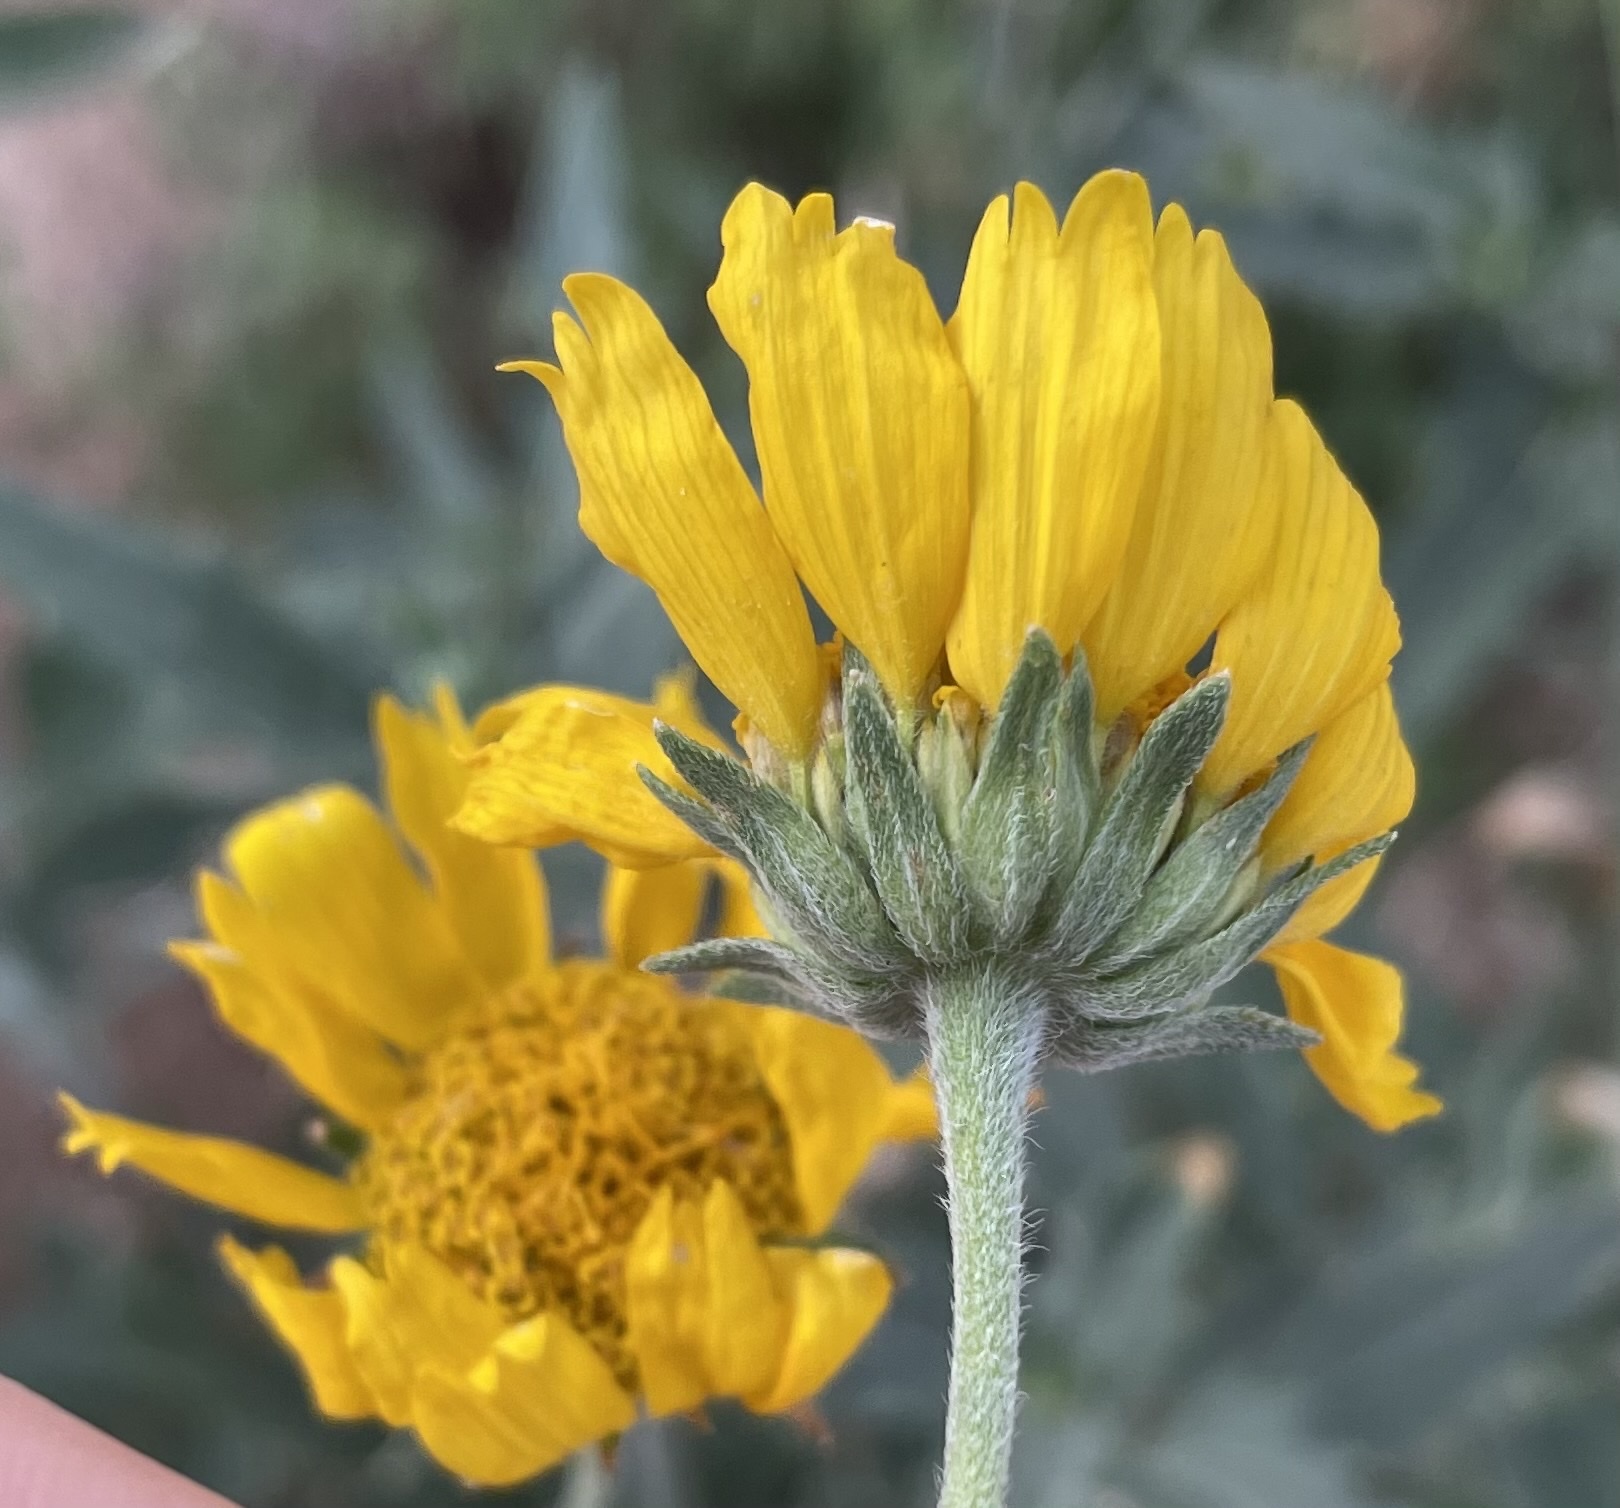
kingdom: Plantae
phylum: Tracheophyta
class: Magnoliopsida
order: Asterales
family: Asteraceae
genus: Verbesina
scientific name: Verbesina encelioides
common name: Golden crownbeard
